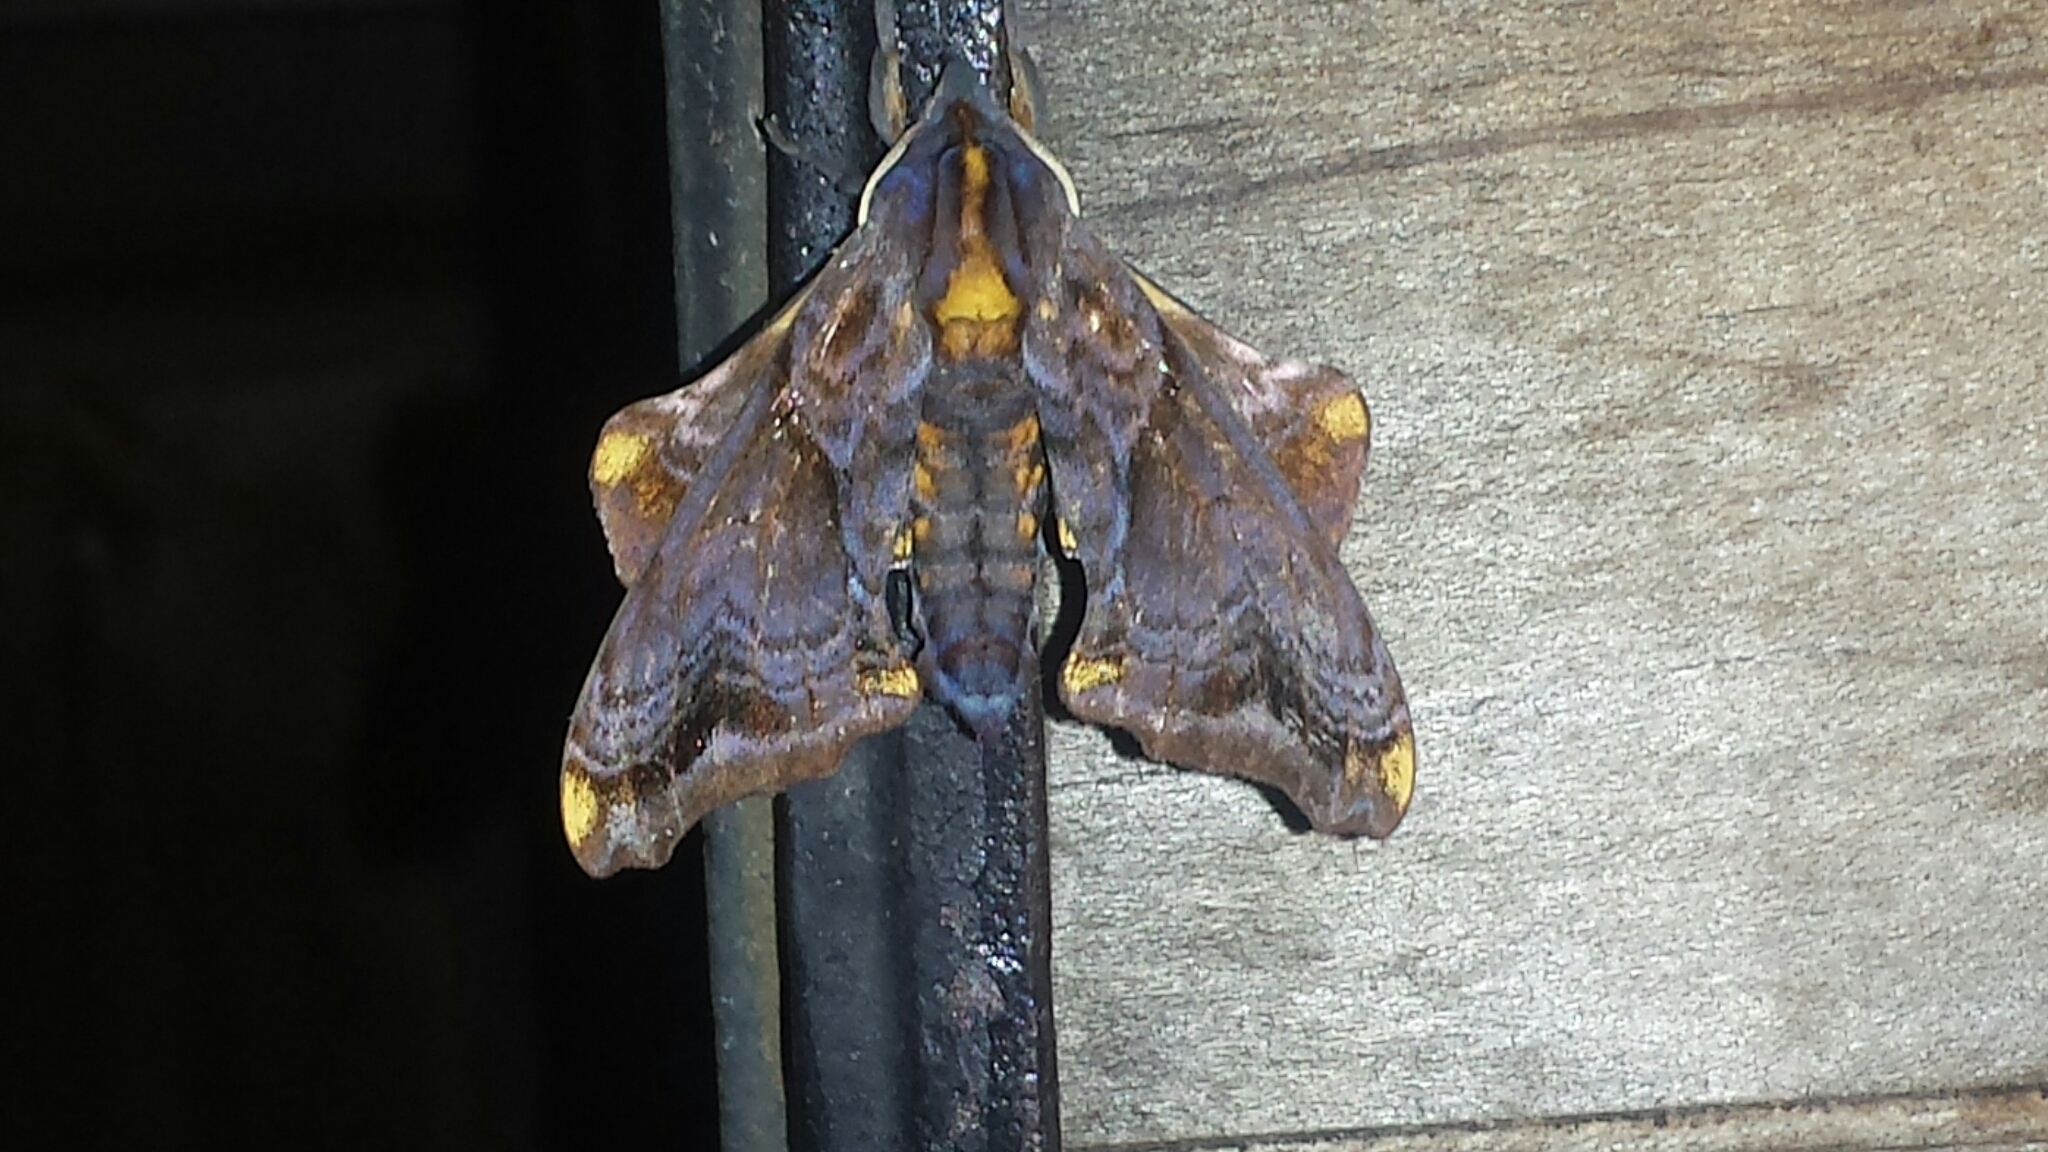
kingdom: Animalia
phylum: Arthropoda
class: Insecta
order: Lepidoptera
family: Sphingidae
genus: Paonias
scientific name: Paonias myops
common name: Small-eyed sphinx
